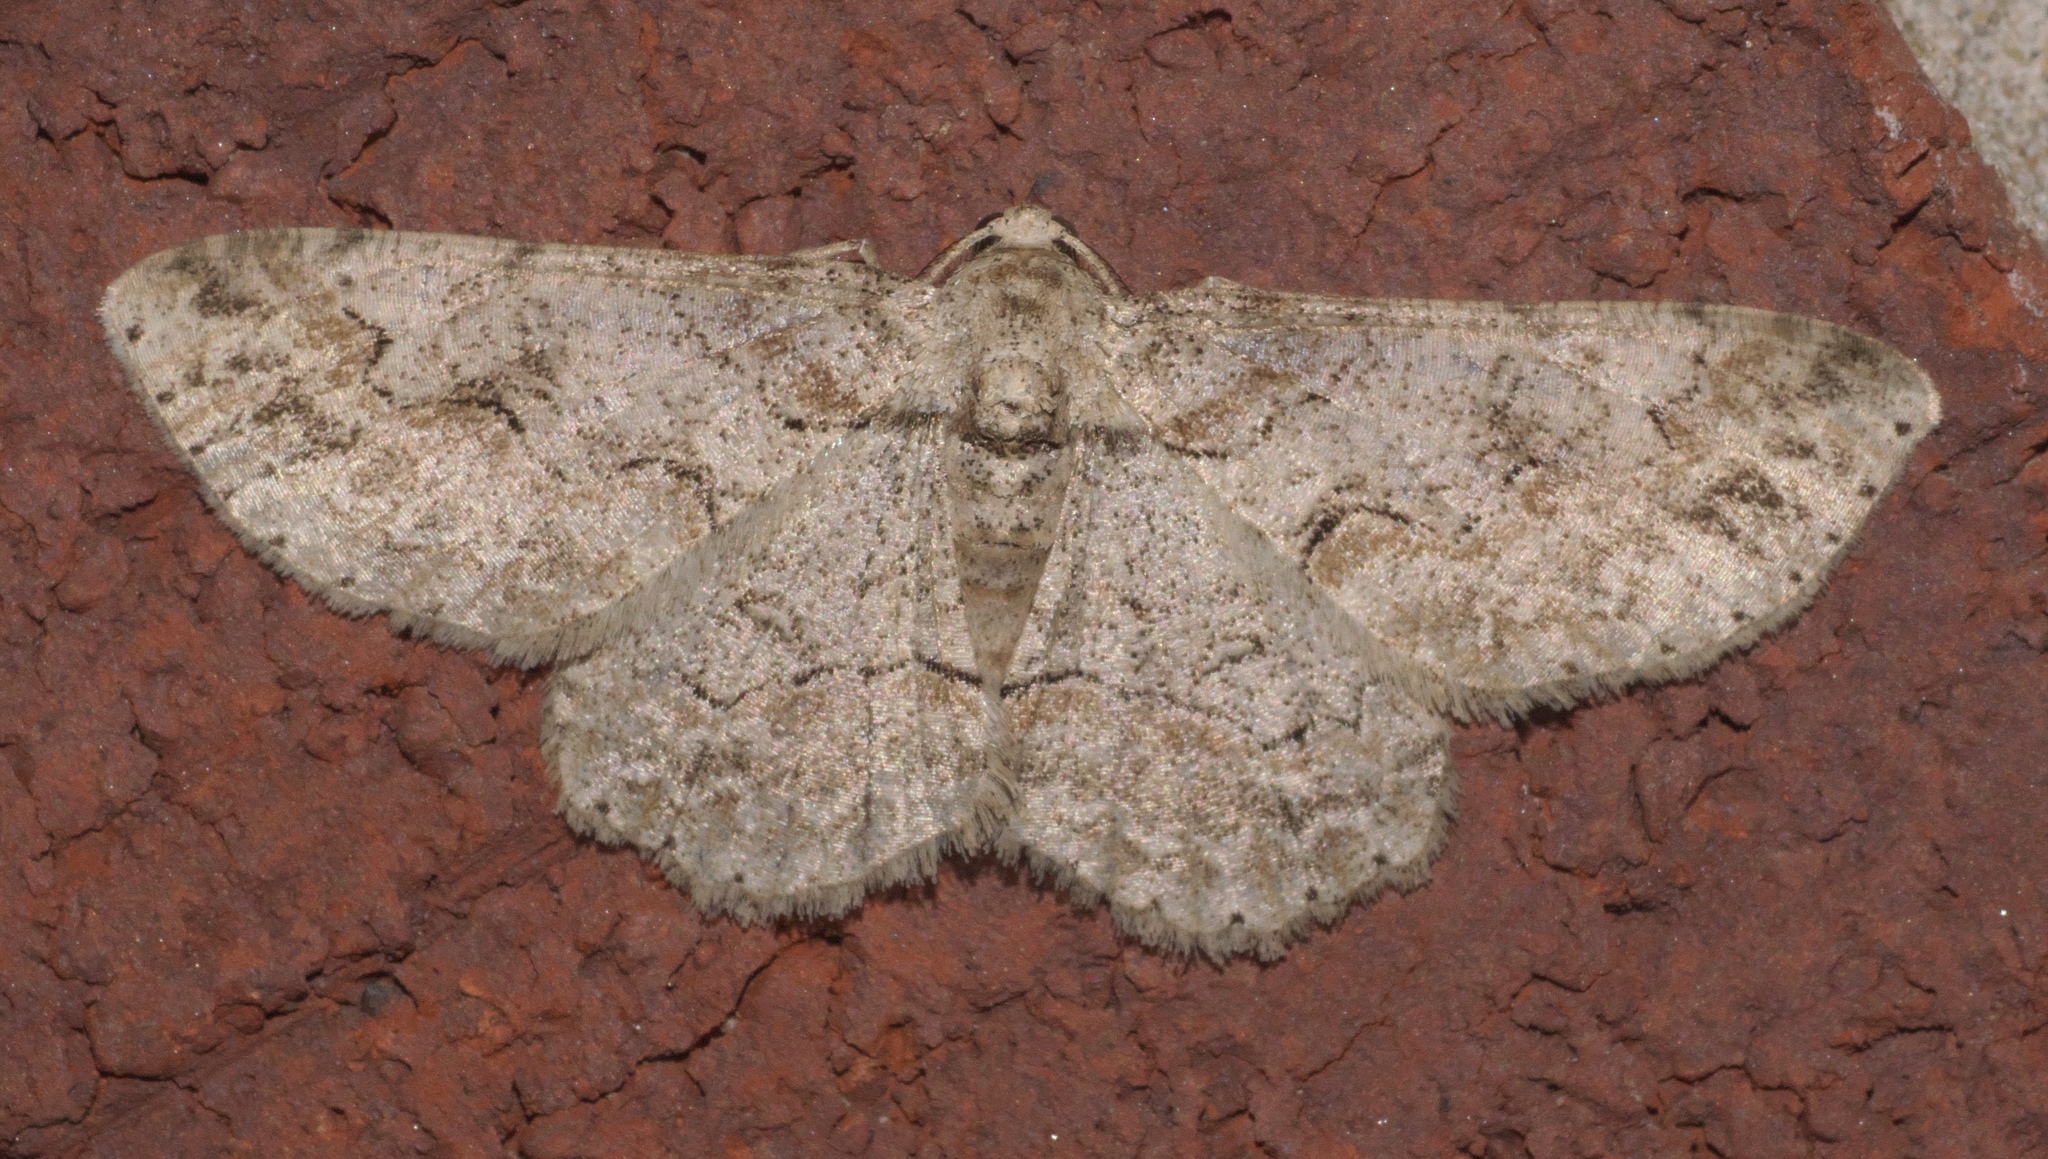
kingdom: Animalia
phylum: Arthropoda
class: Insecta
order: Lepidoptera
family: Geometridae
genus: Iridopsis
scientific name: Iridopsis defectaria
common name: Brown-shaded gray
